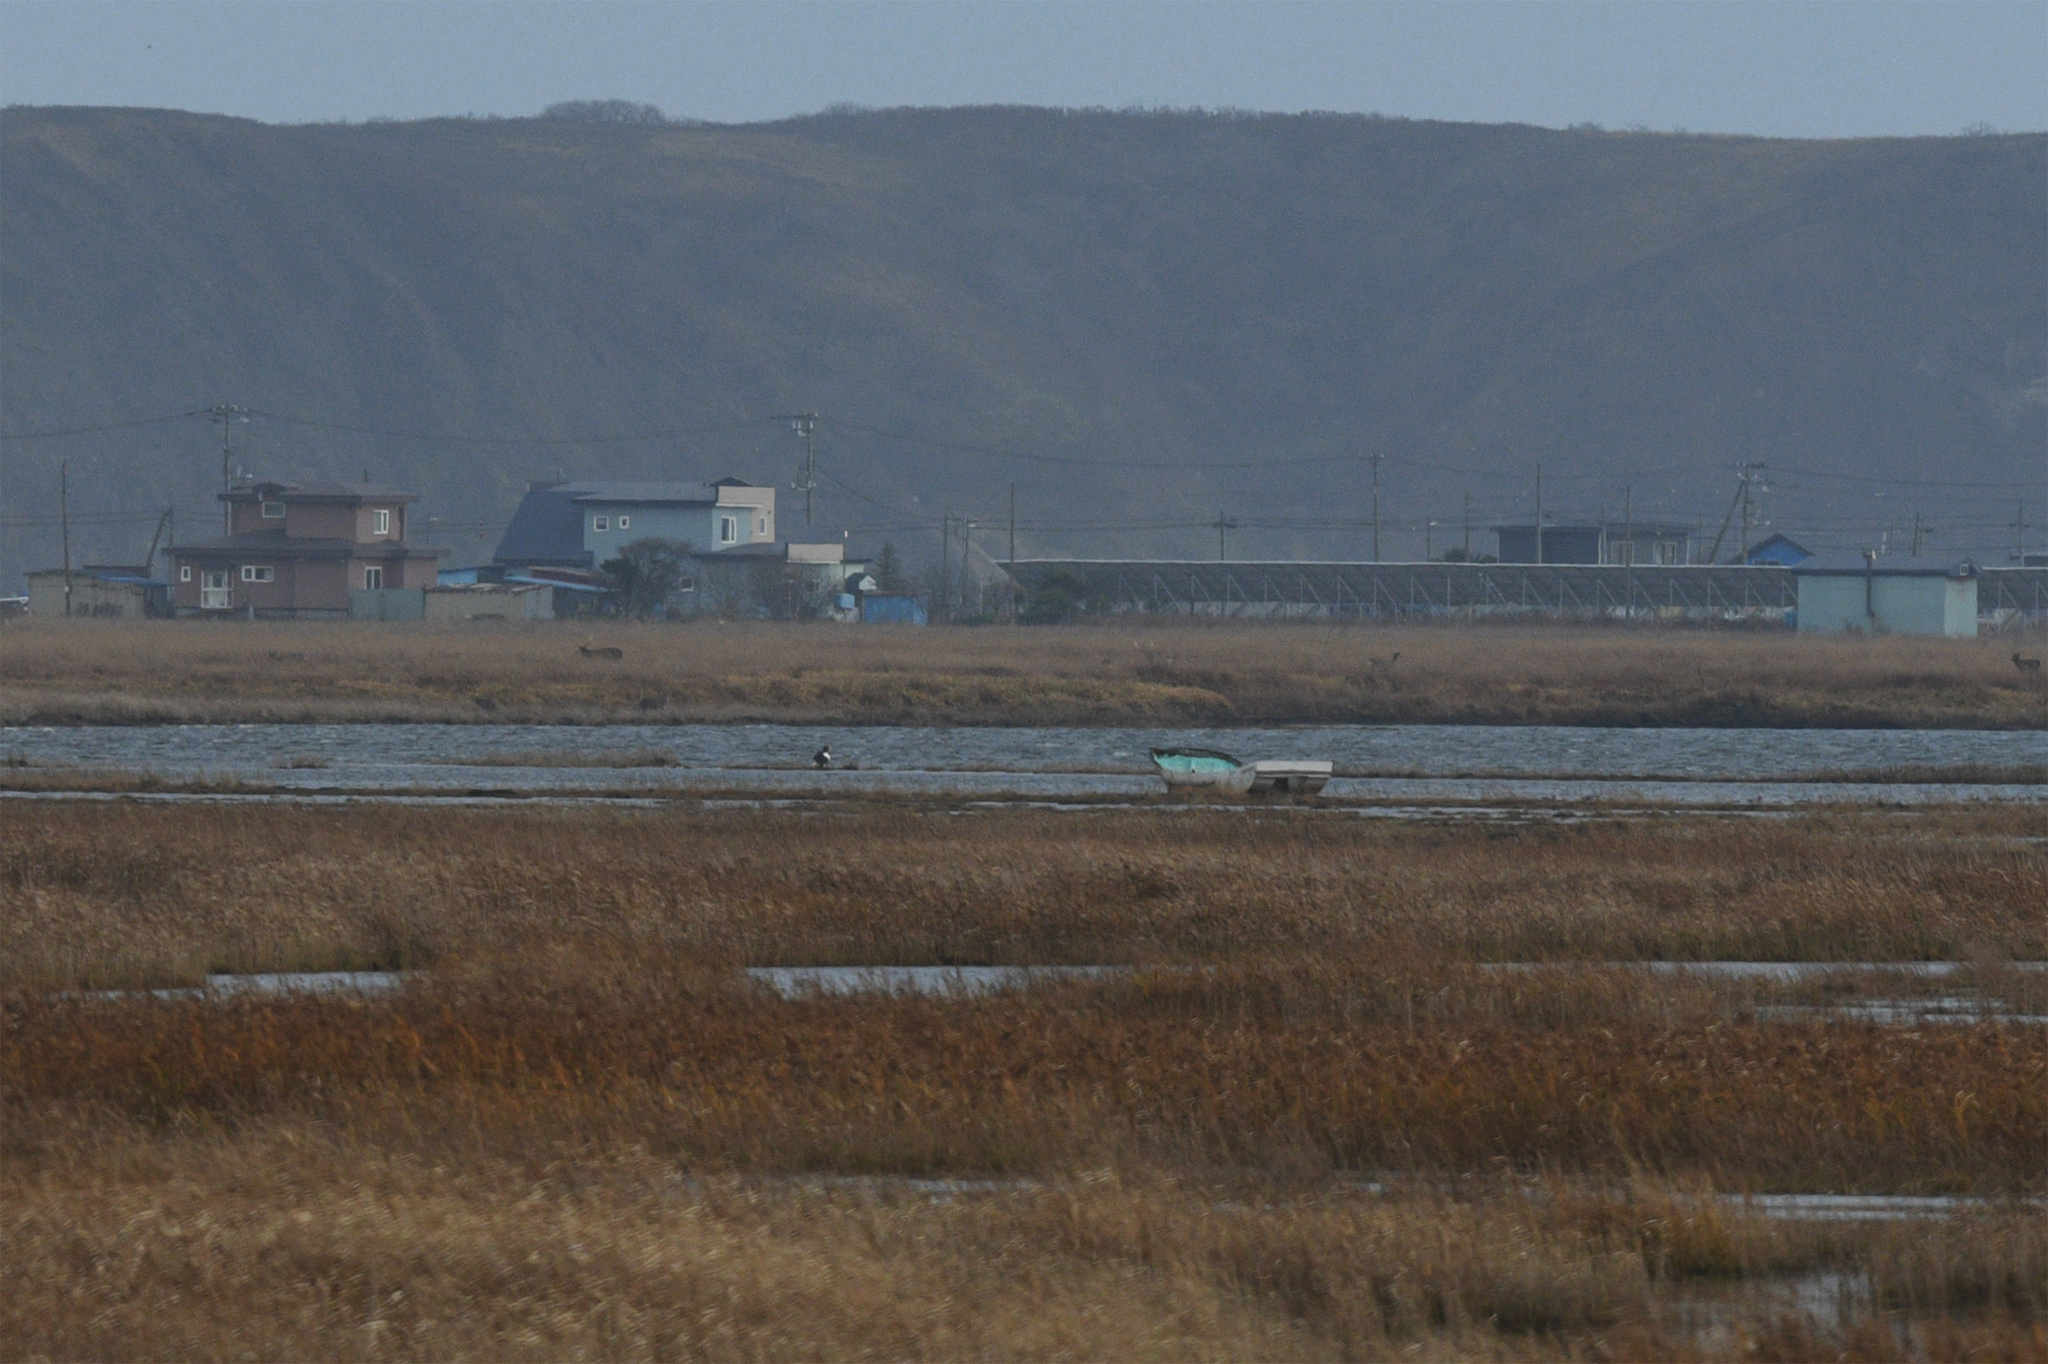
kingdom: Animalia
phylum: Chordata
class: Aves
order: Accipitriformes
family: Accipitridae
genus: Haliaeetus
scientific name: Haliaeetus pelagicus
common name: Steller's sea eagle
